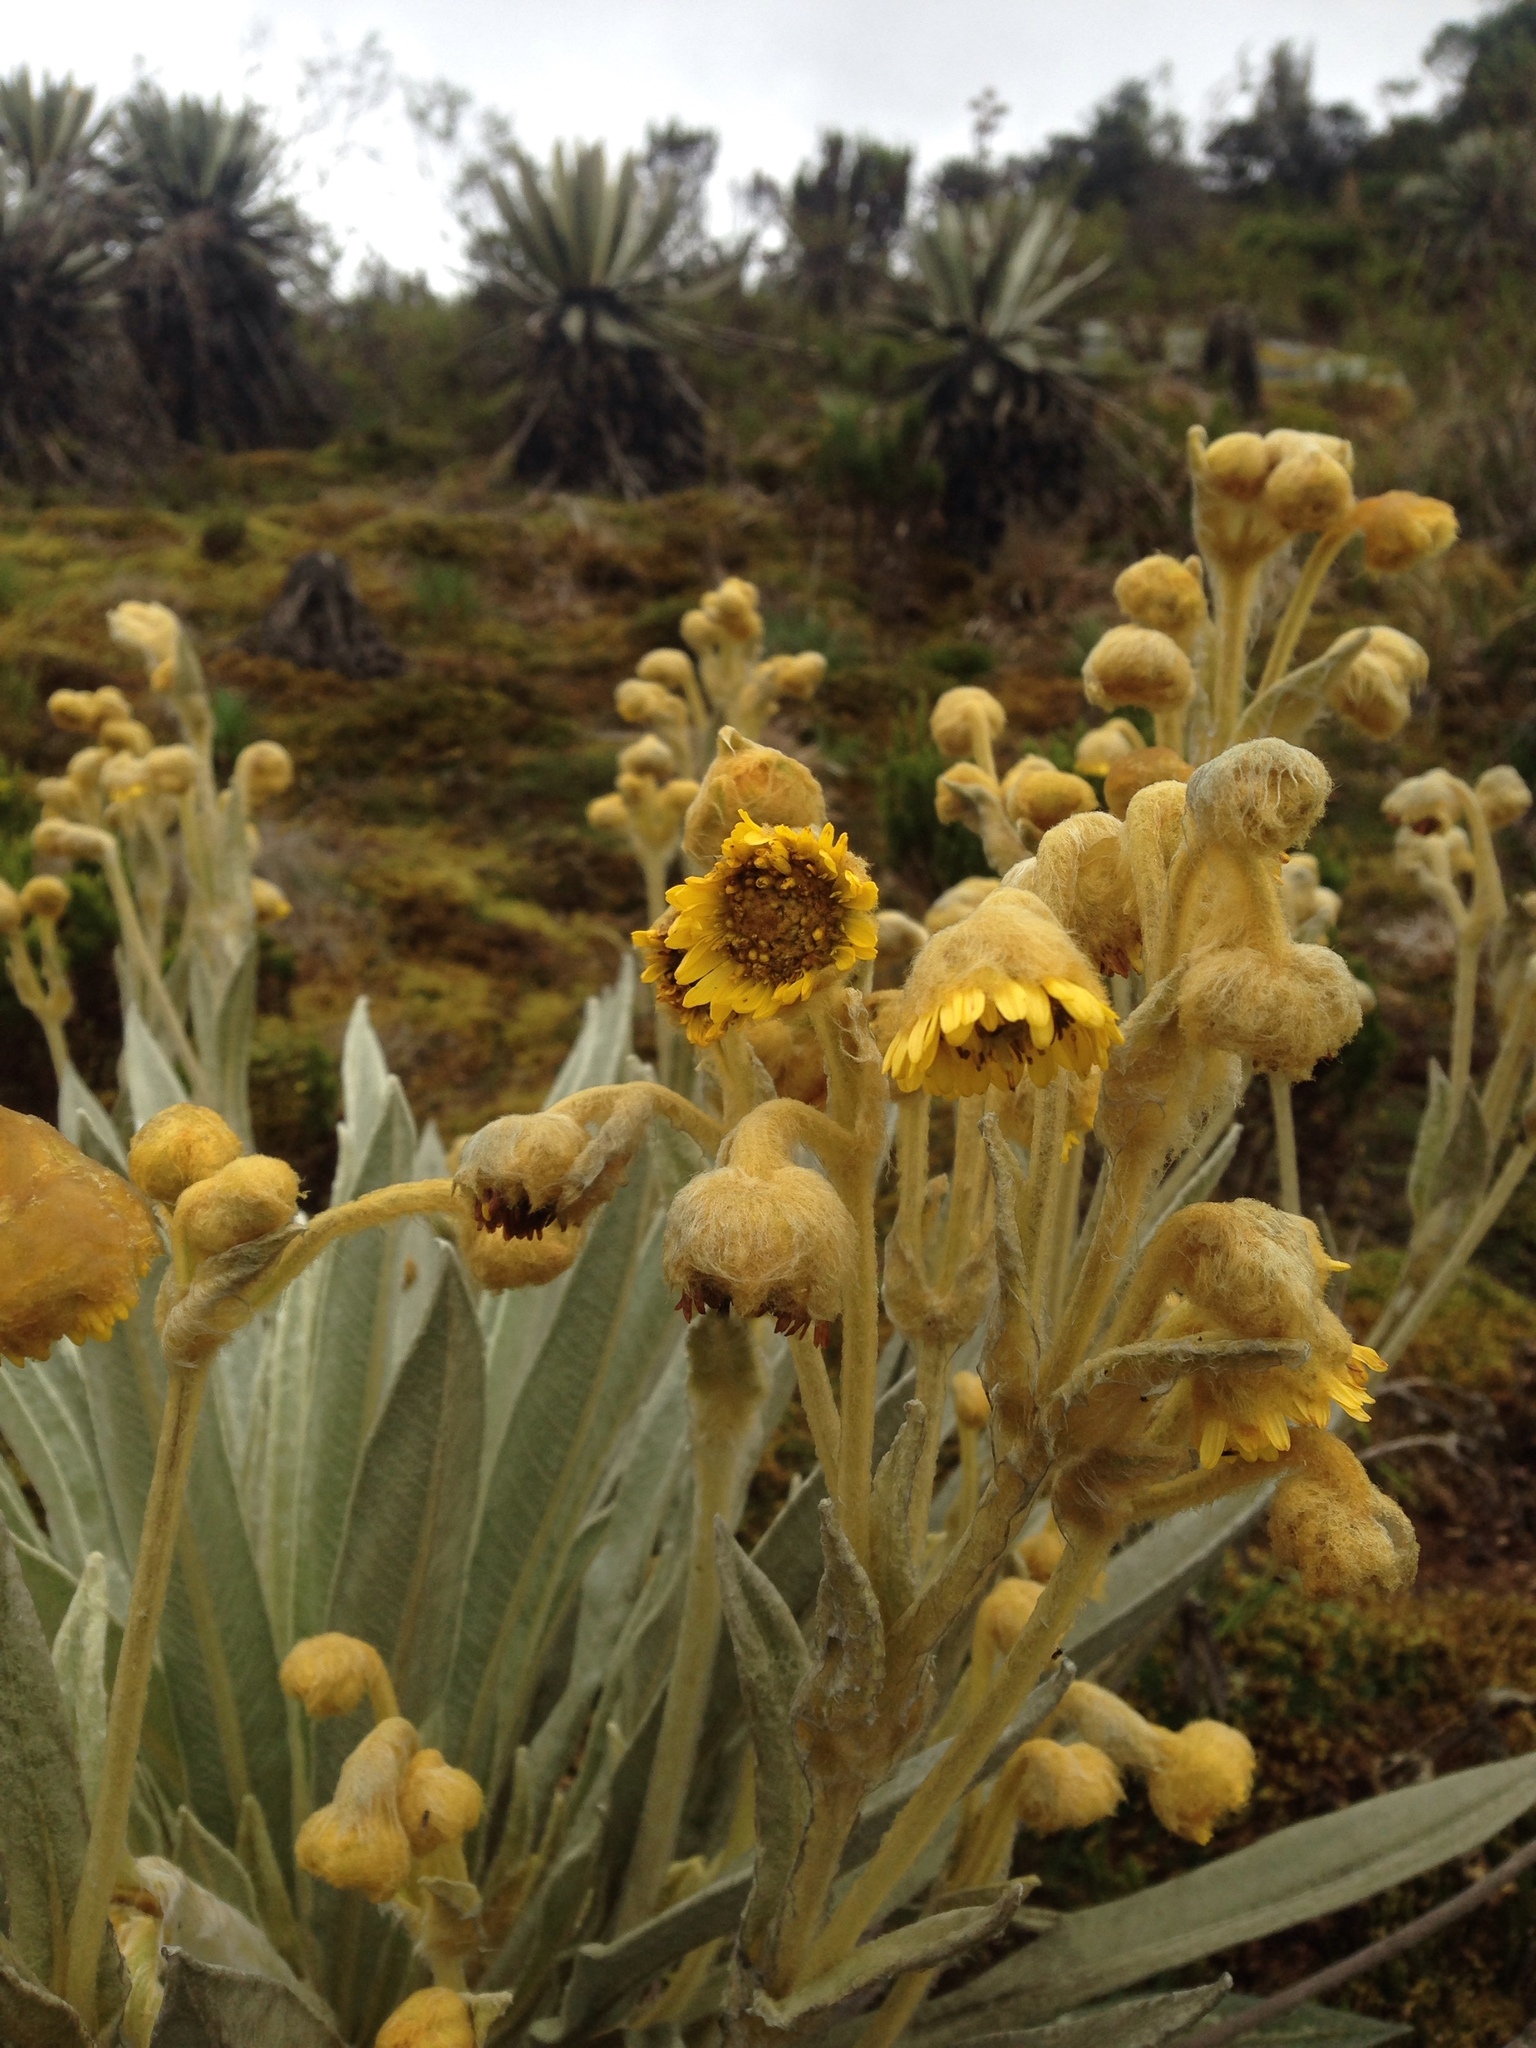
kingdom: Plantae
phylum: Tracheophyta
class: Magnoliopsida
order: Asterales
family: Asteraceae
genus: Espeletia
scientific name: Espeletia grandiflora
